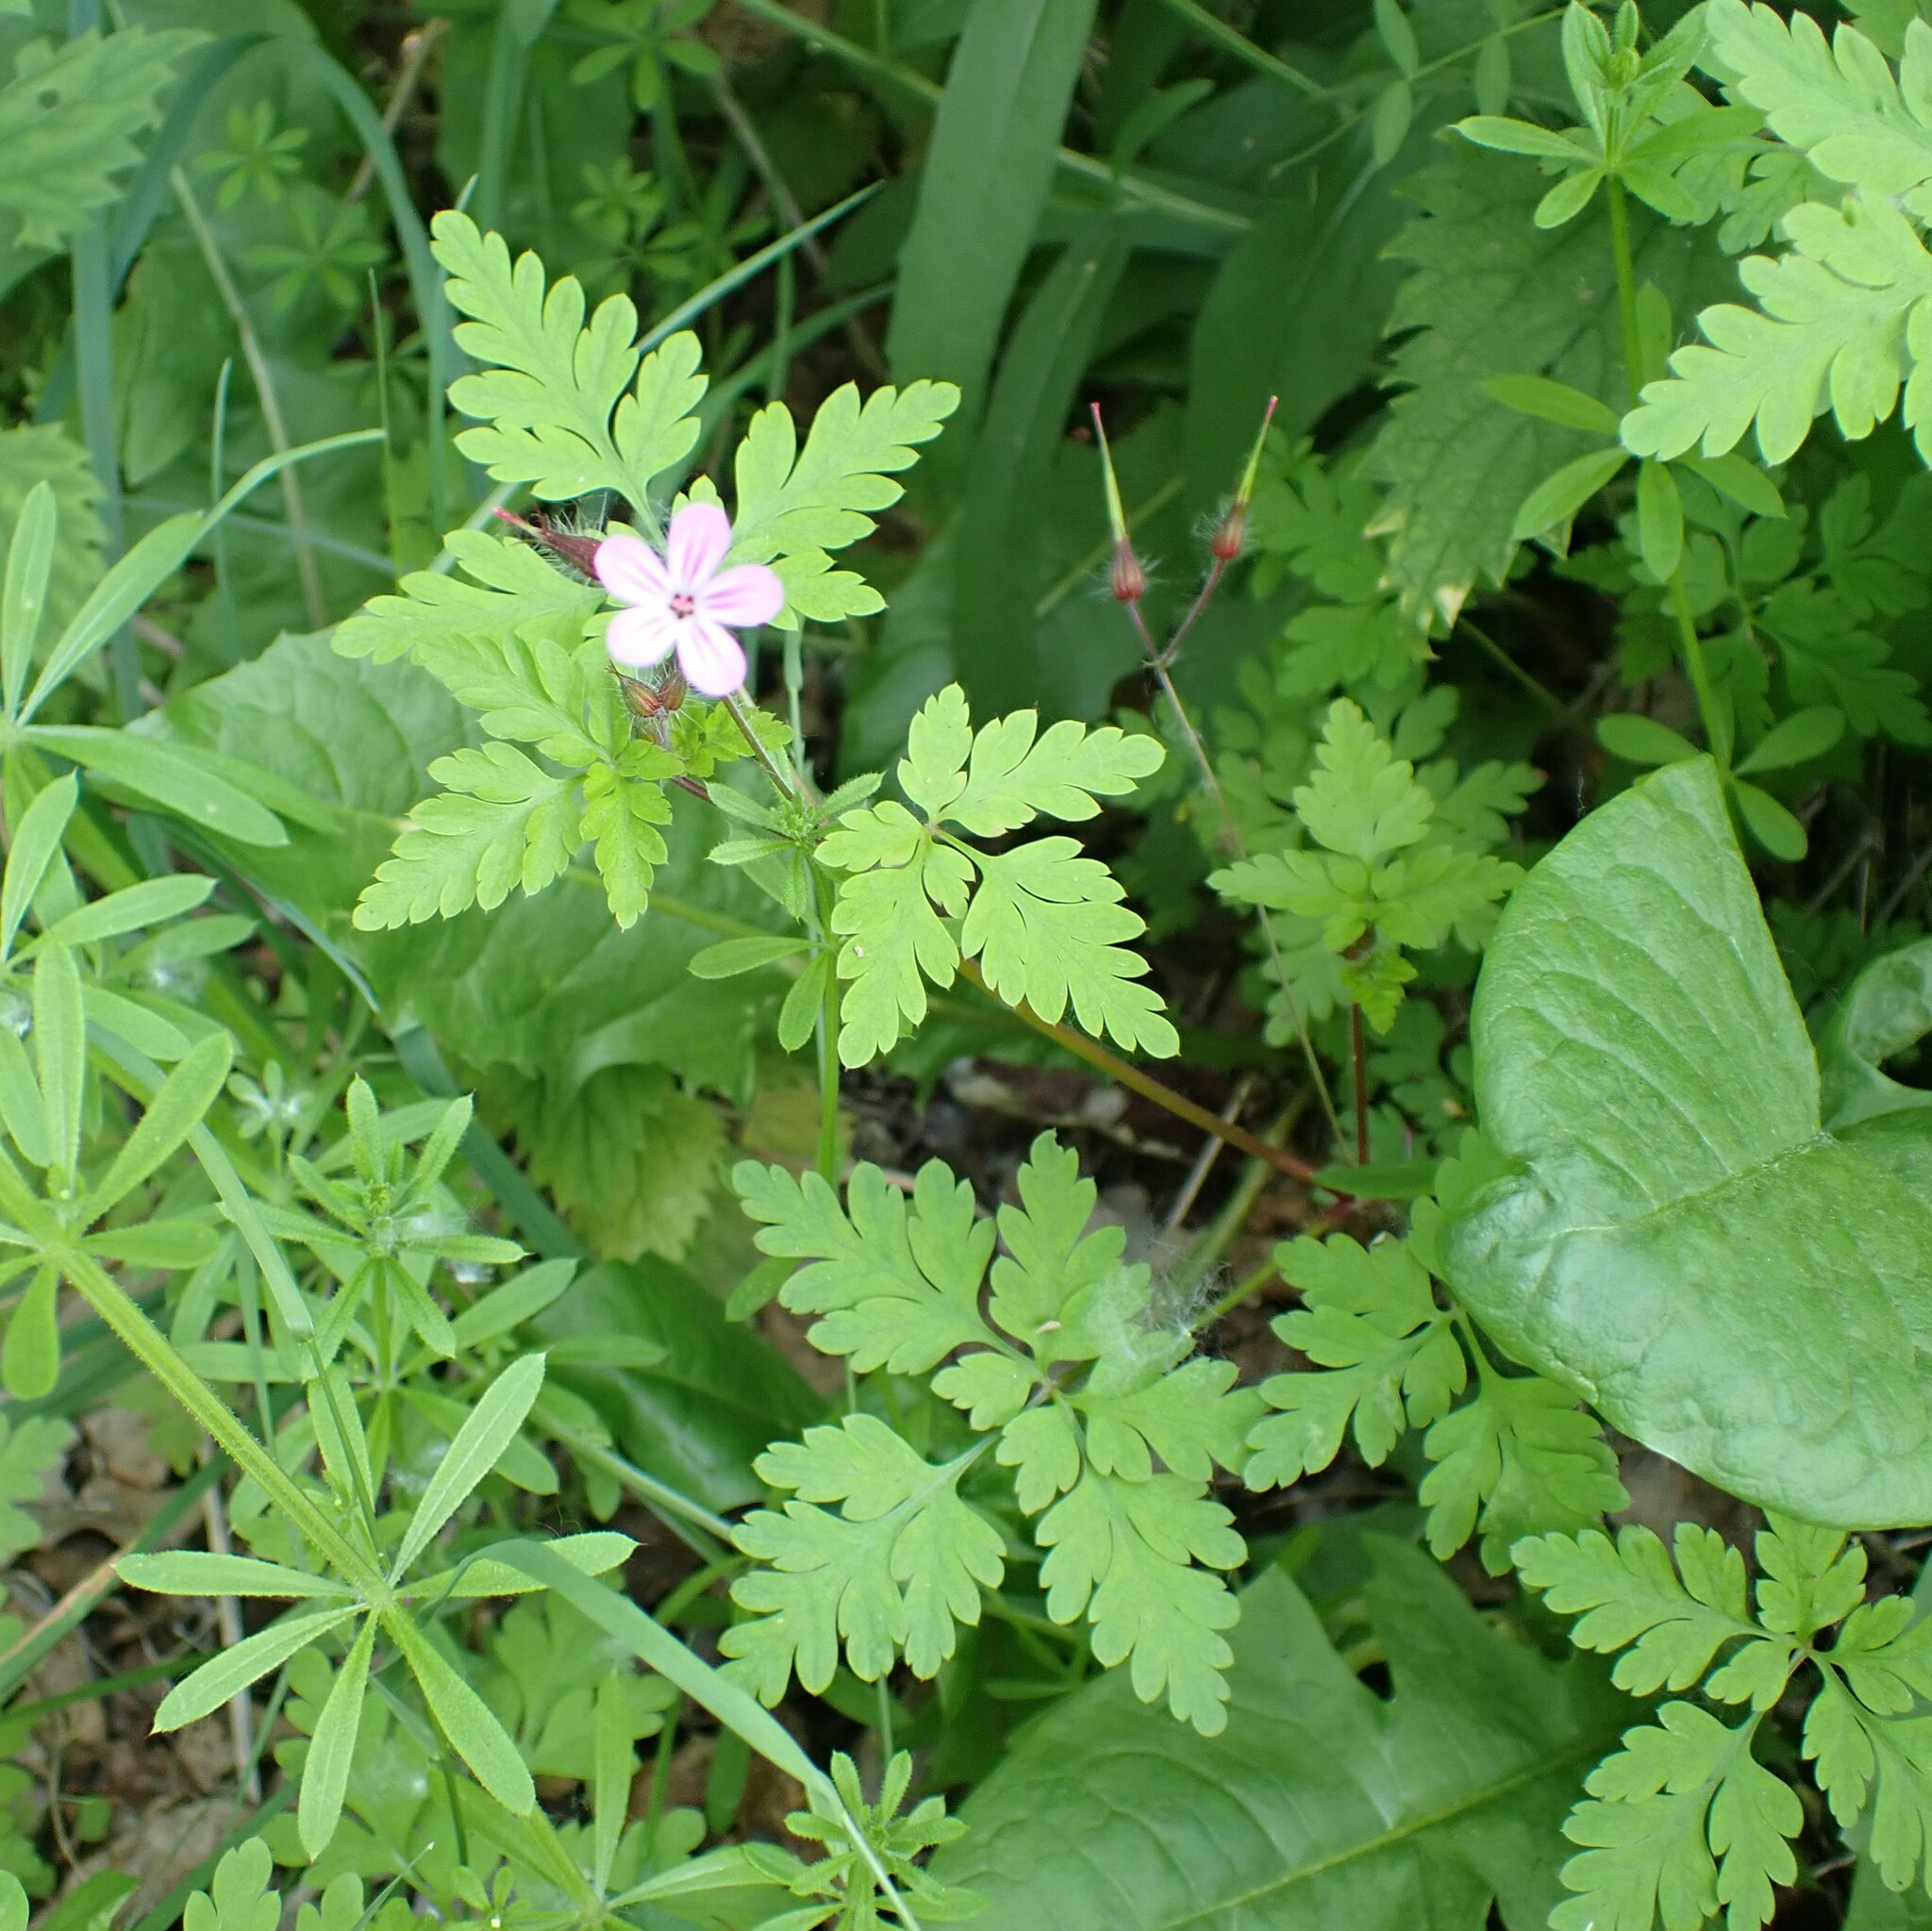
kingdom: Plantae
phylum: Tracheophyta
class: Magnoliopsida
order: Geraniales
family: Geraniaceae
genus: Geranium
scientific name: Geranium robertianum
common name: Herb-robert
